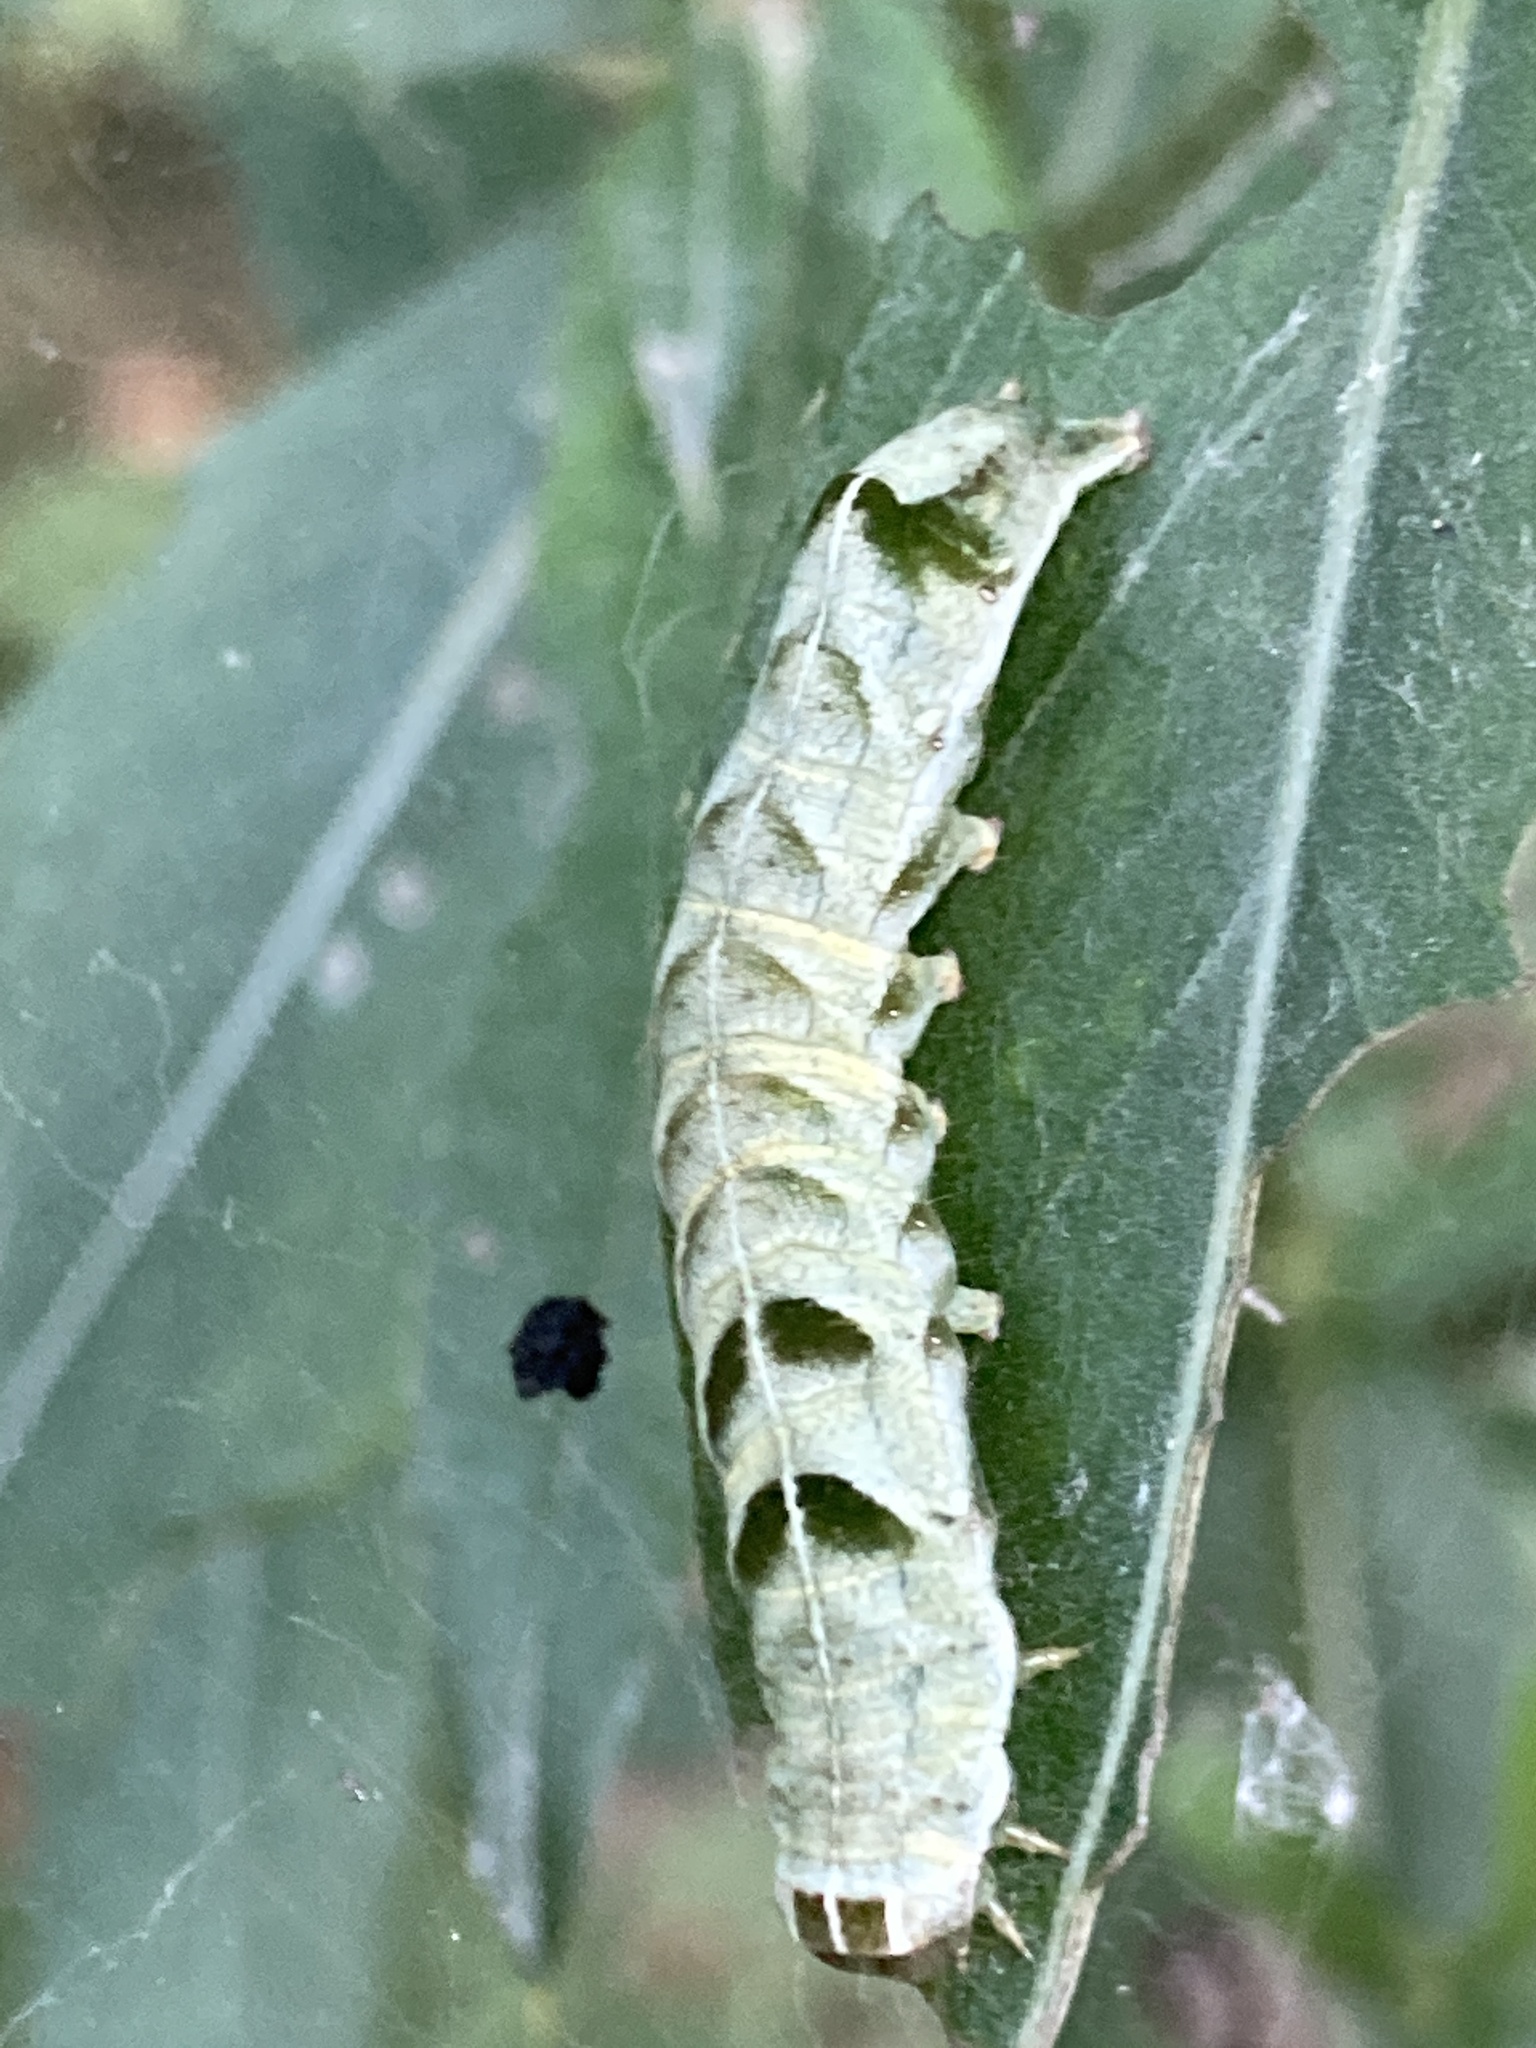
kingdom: Animalia
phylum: Arthropoda
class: Insecta
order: Lepidoptera
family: Noctuidae
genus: Melanchra
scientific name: Melanchra persicariae
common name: Dot moth
